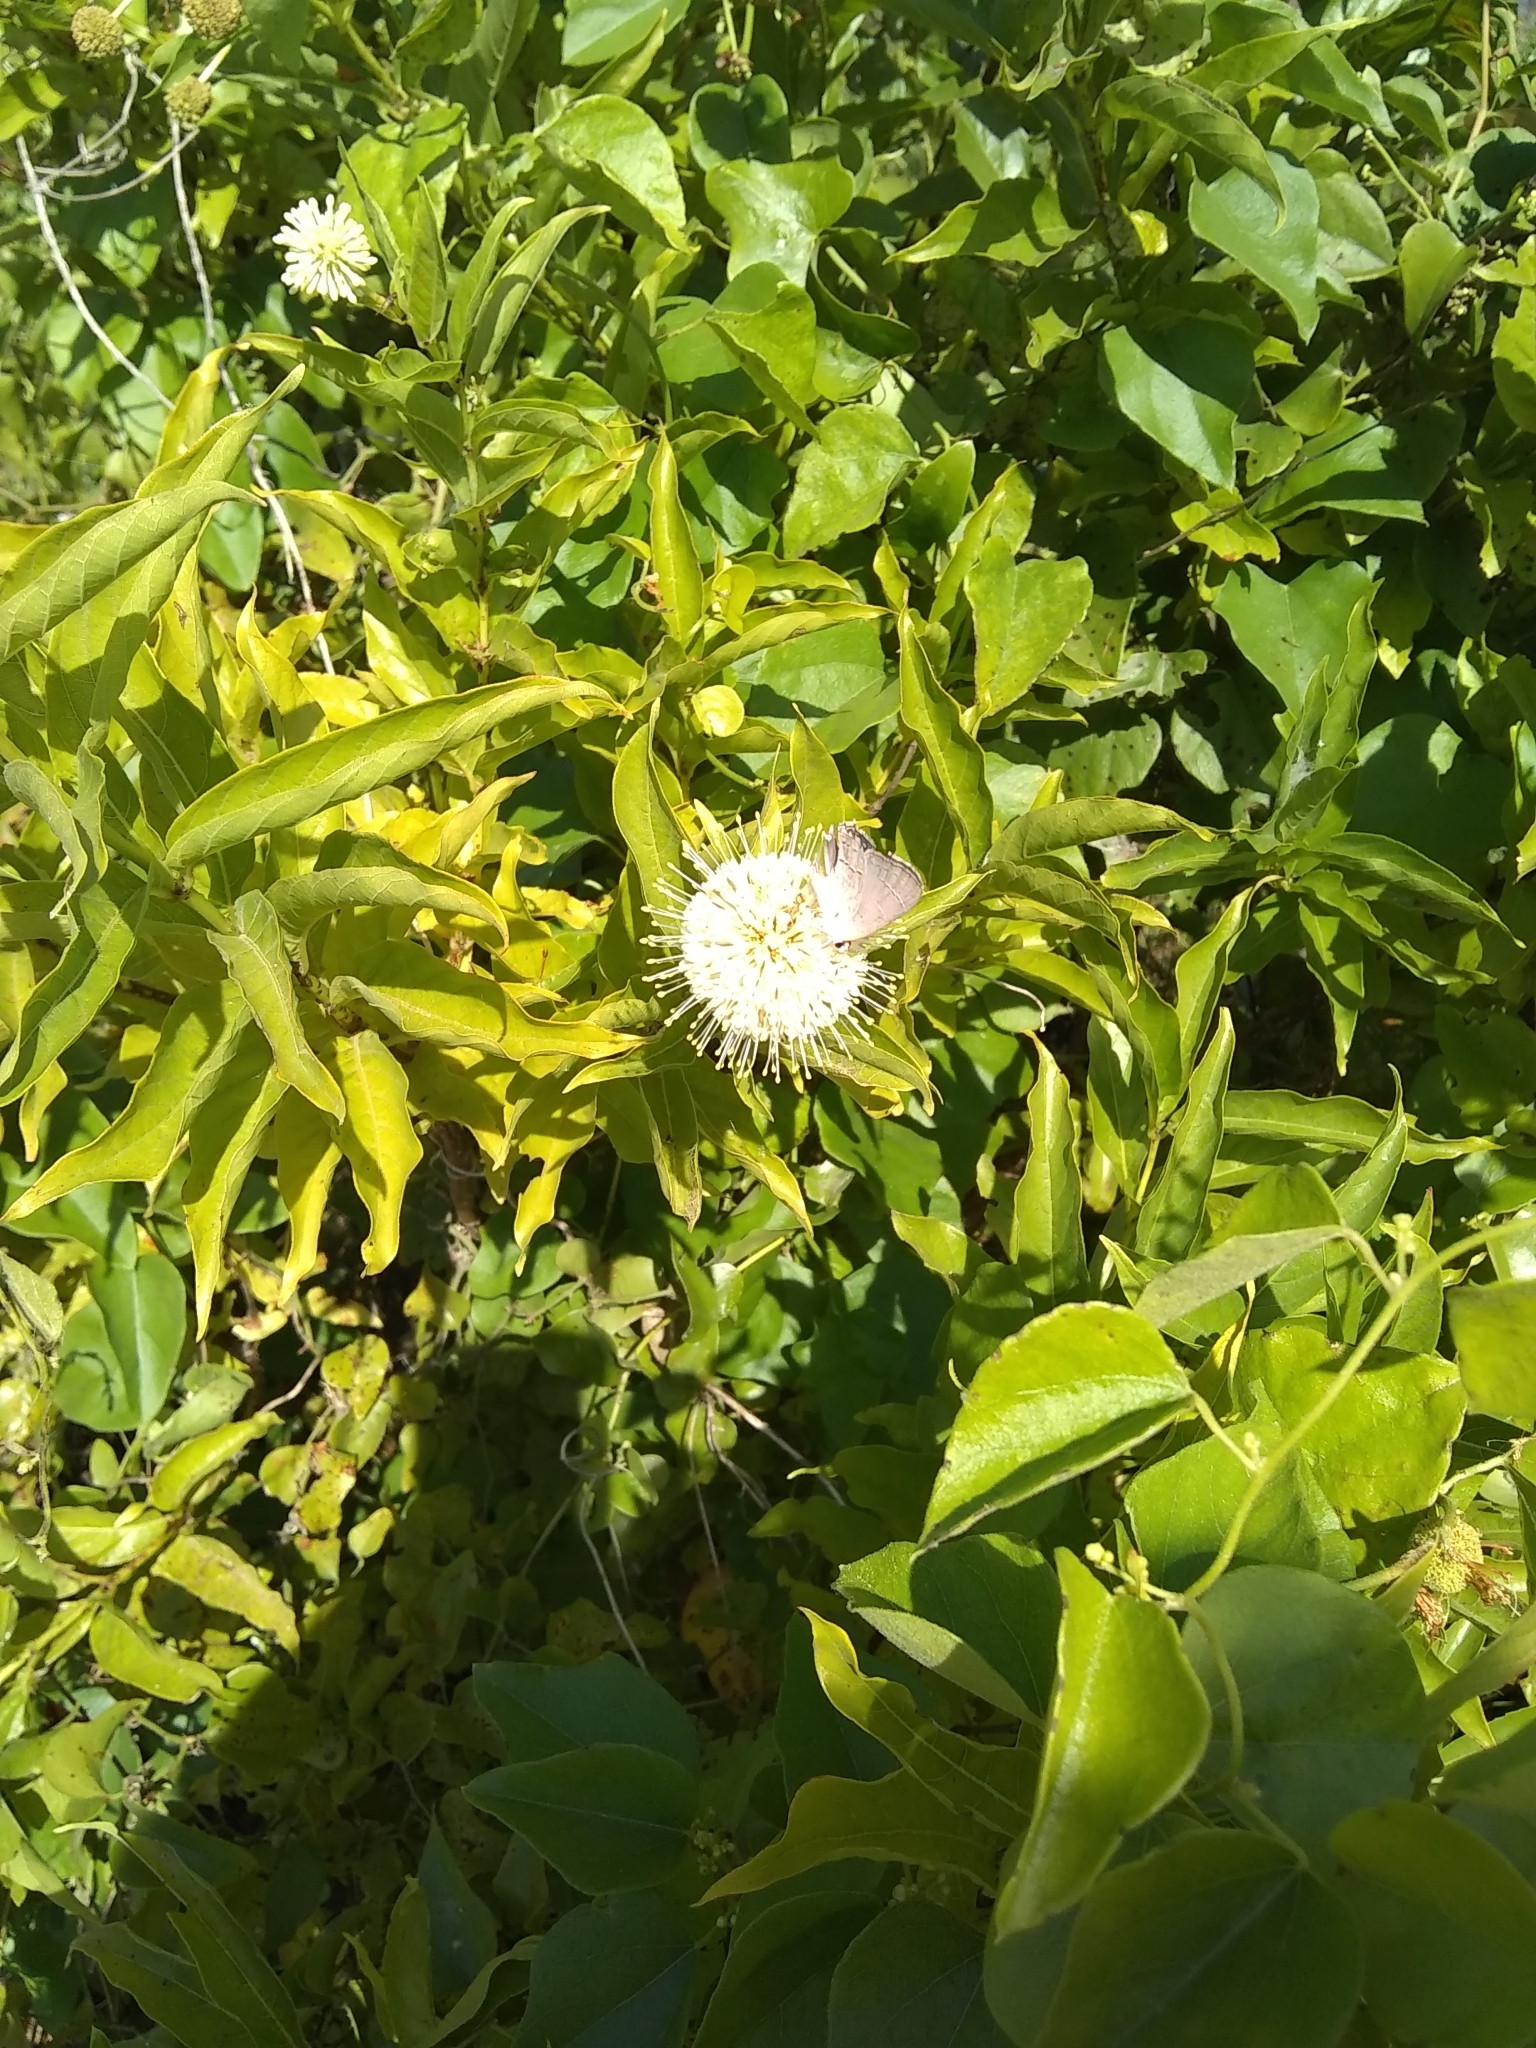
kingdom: Animalia
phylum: Arthropoda
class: Insecta
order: Lepidoptera
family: Lycaenidae
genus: Strymon
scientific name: Strymon melinus
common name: Gray hairstreak
